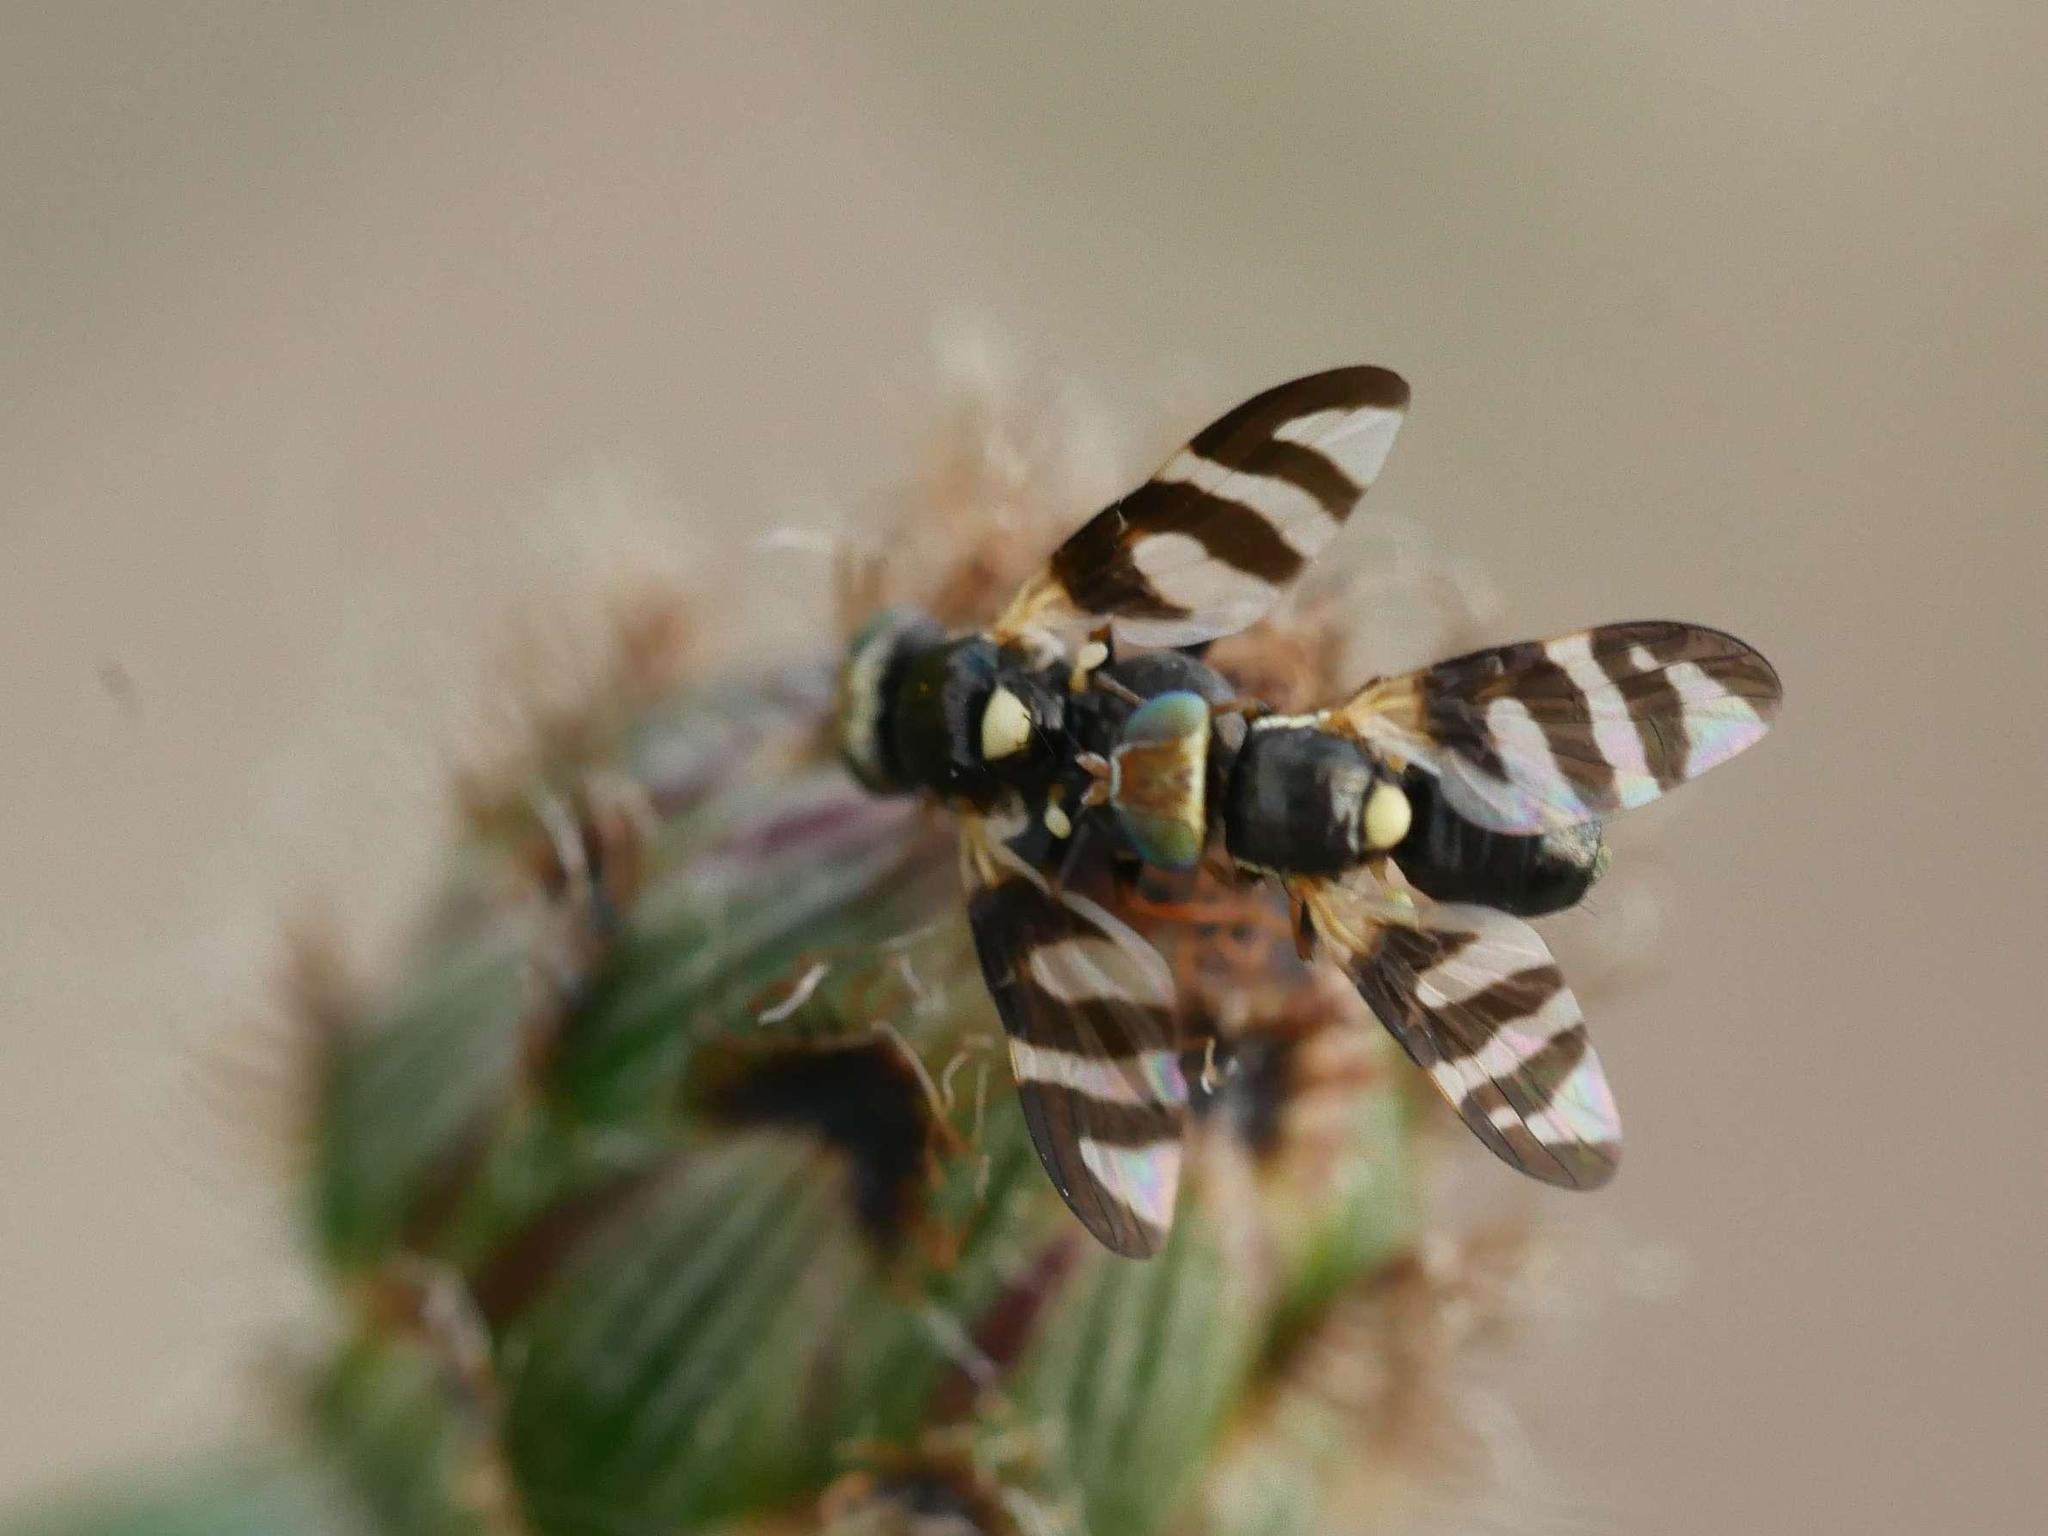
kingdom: Animalia
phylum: Arthropoda
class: Insecta
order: Diptera
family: Tephritidae
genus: Urophora
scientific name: Urophora quadrifasciata
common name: Knapweed seedhead fly
